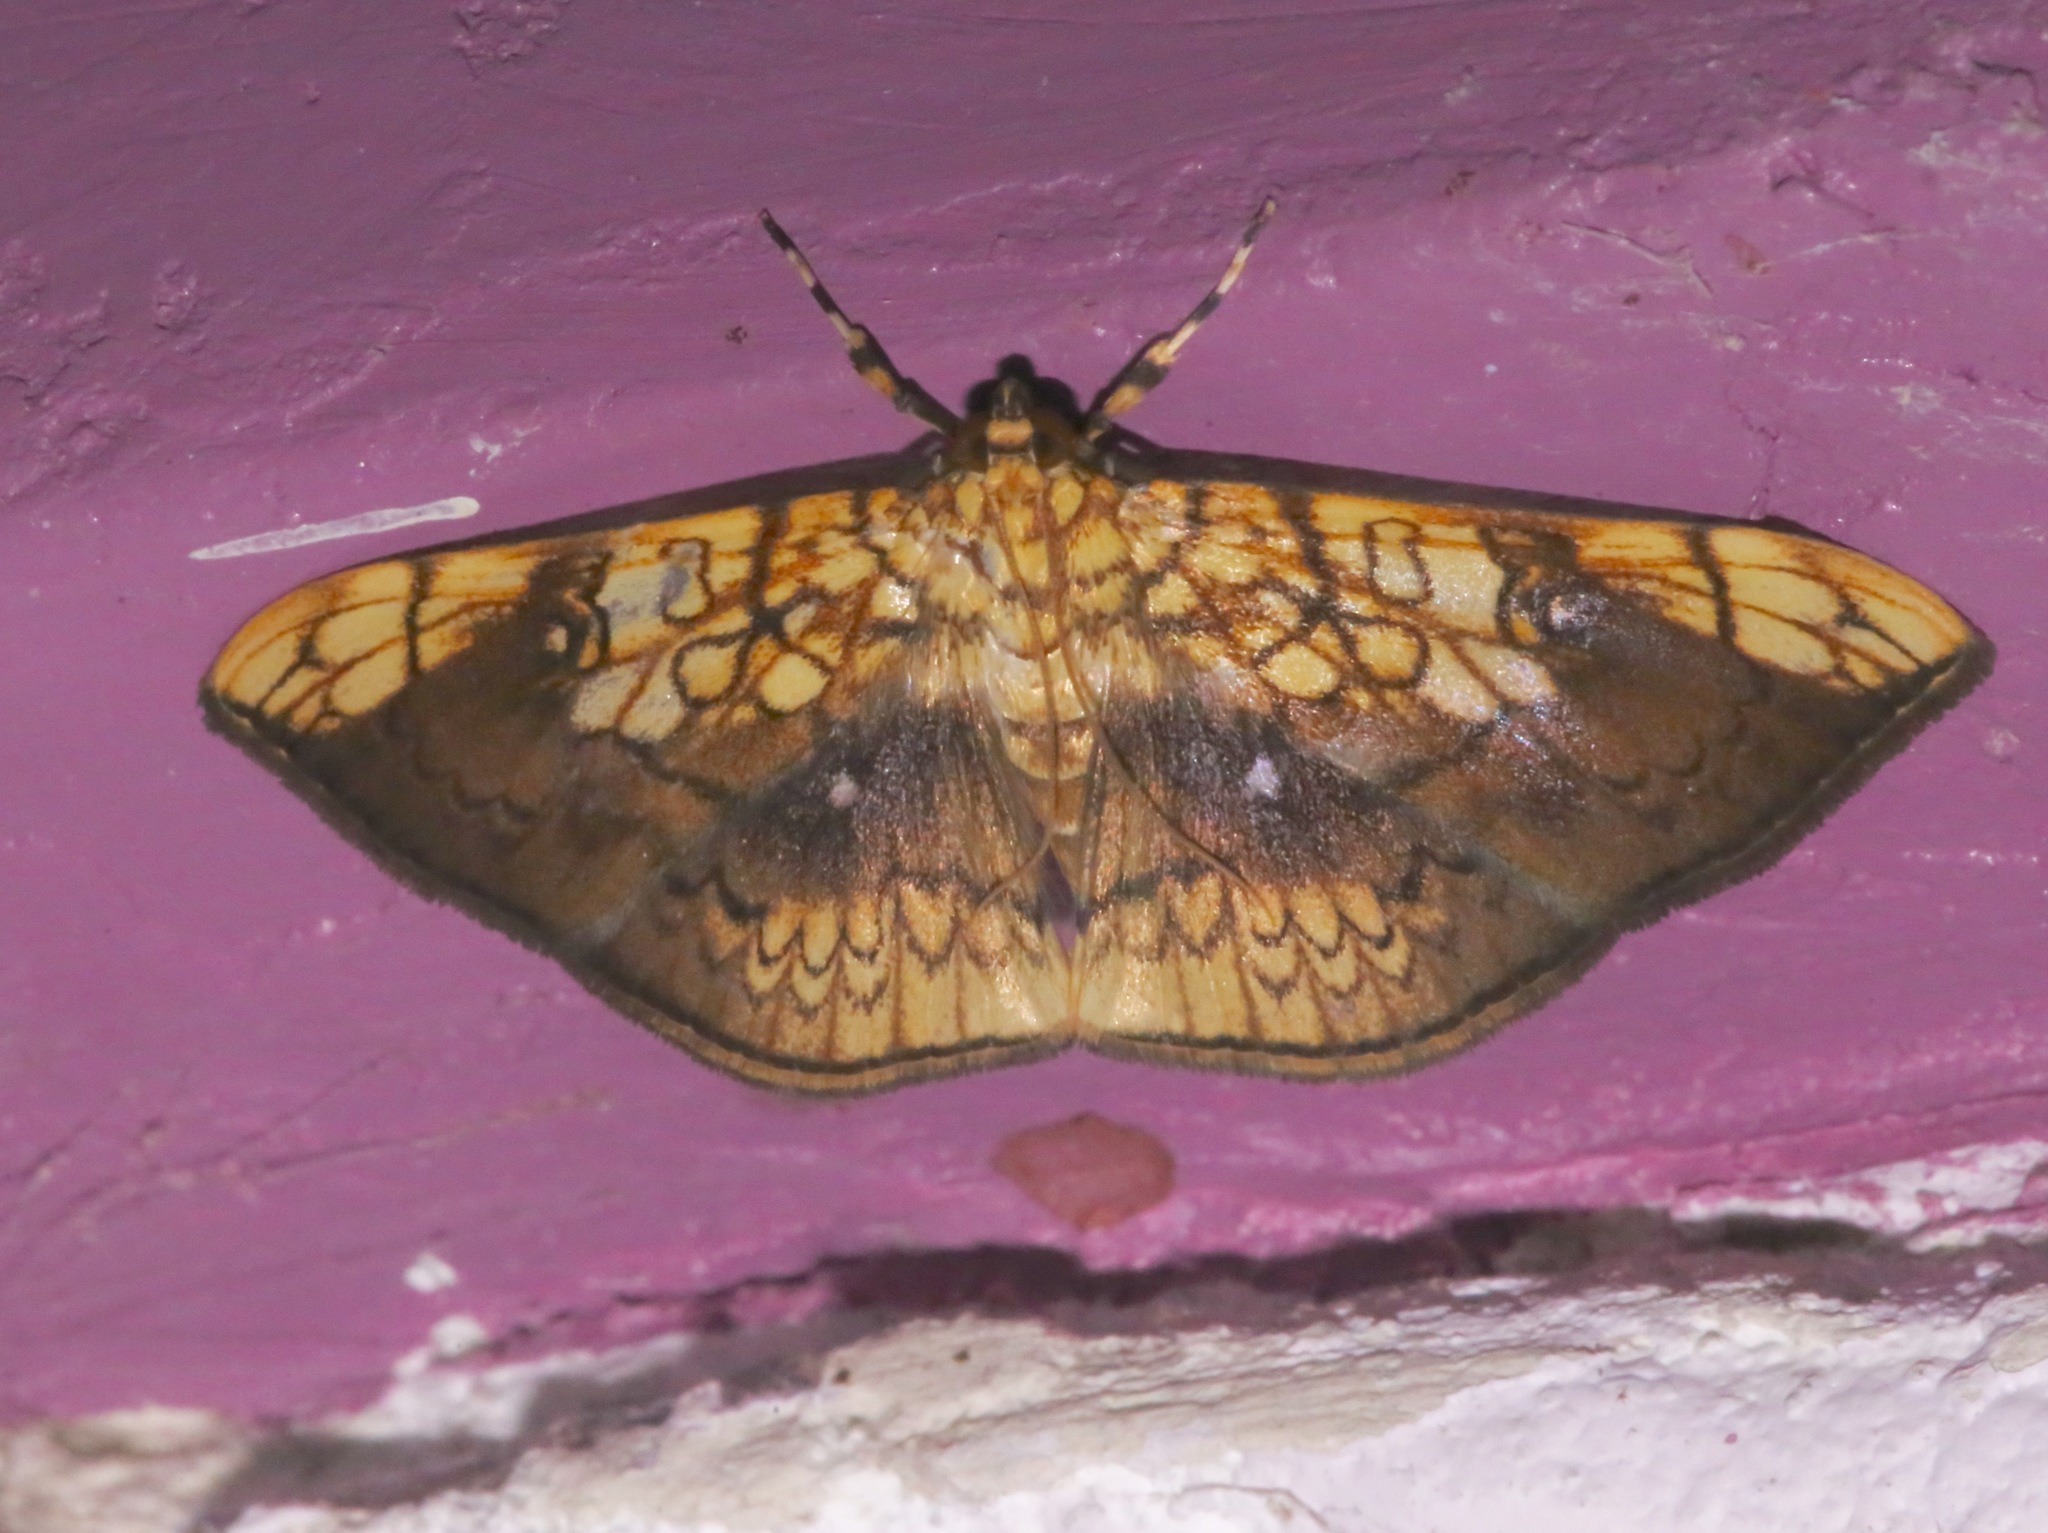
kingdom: Animalia
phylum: Arthropoda
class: Insecta
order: Lepidoptera
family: Crambidae
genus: Pantographa
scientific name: Pantographa scripturalis
